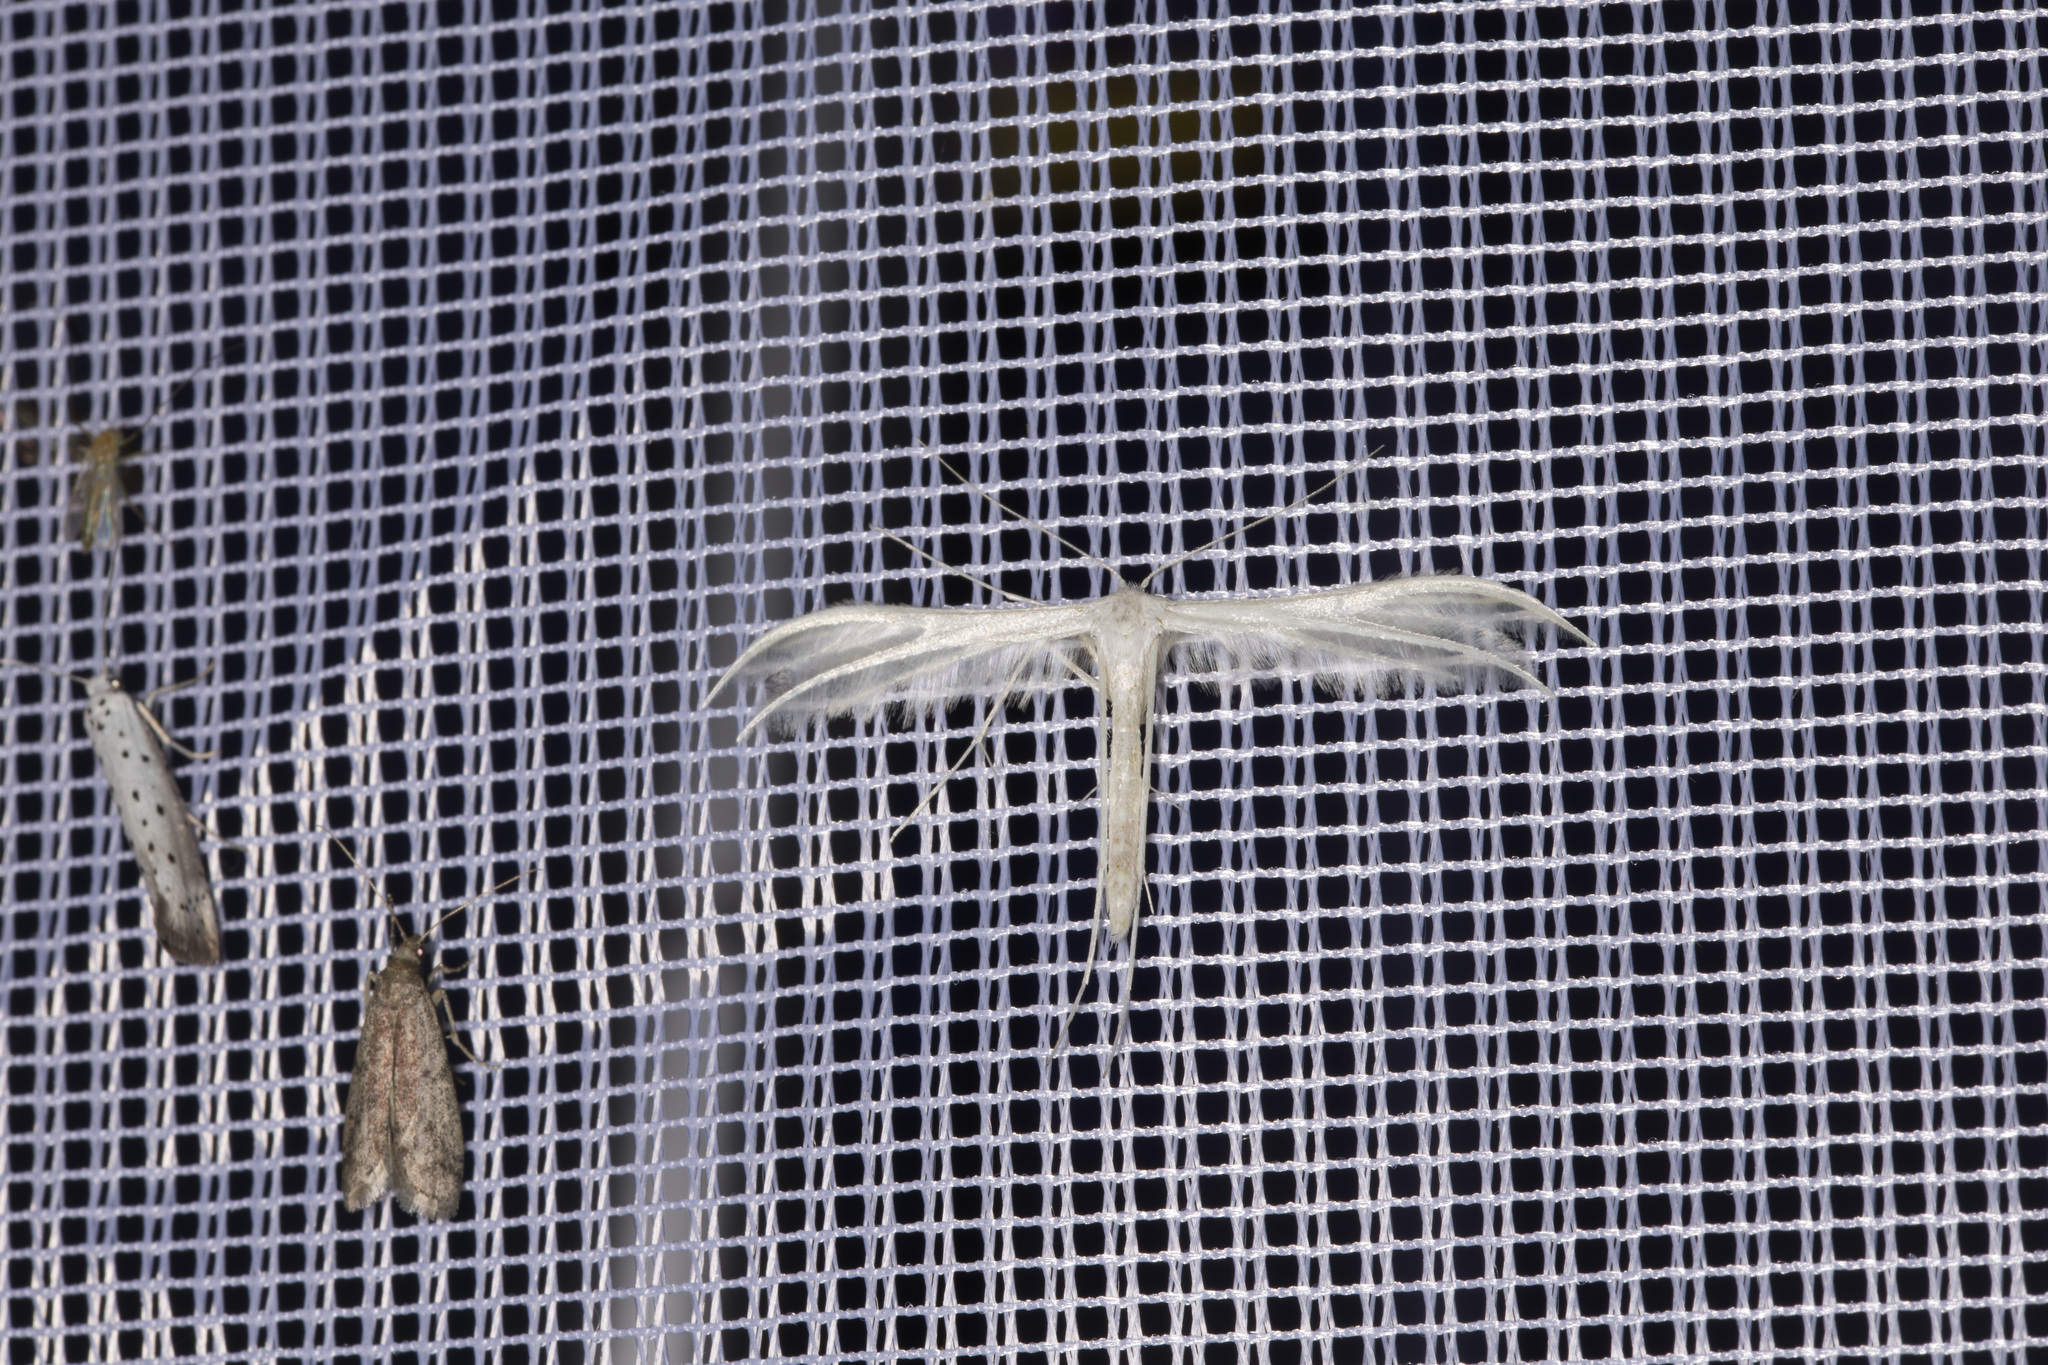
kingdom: Animalia
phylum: Arthropoda
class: Insecta
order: Lepidoptera
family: Pterophoridae
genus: Pterophorus
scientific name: Pterophorus pentadactyla
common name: White plume moth
